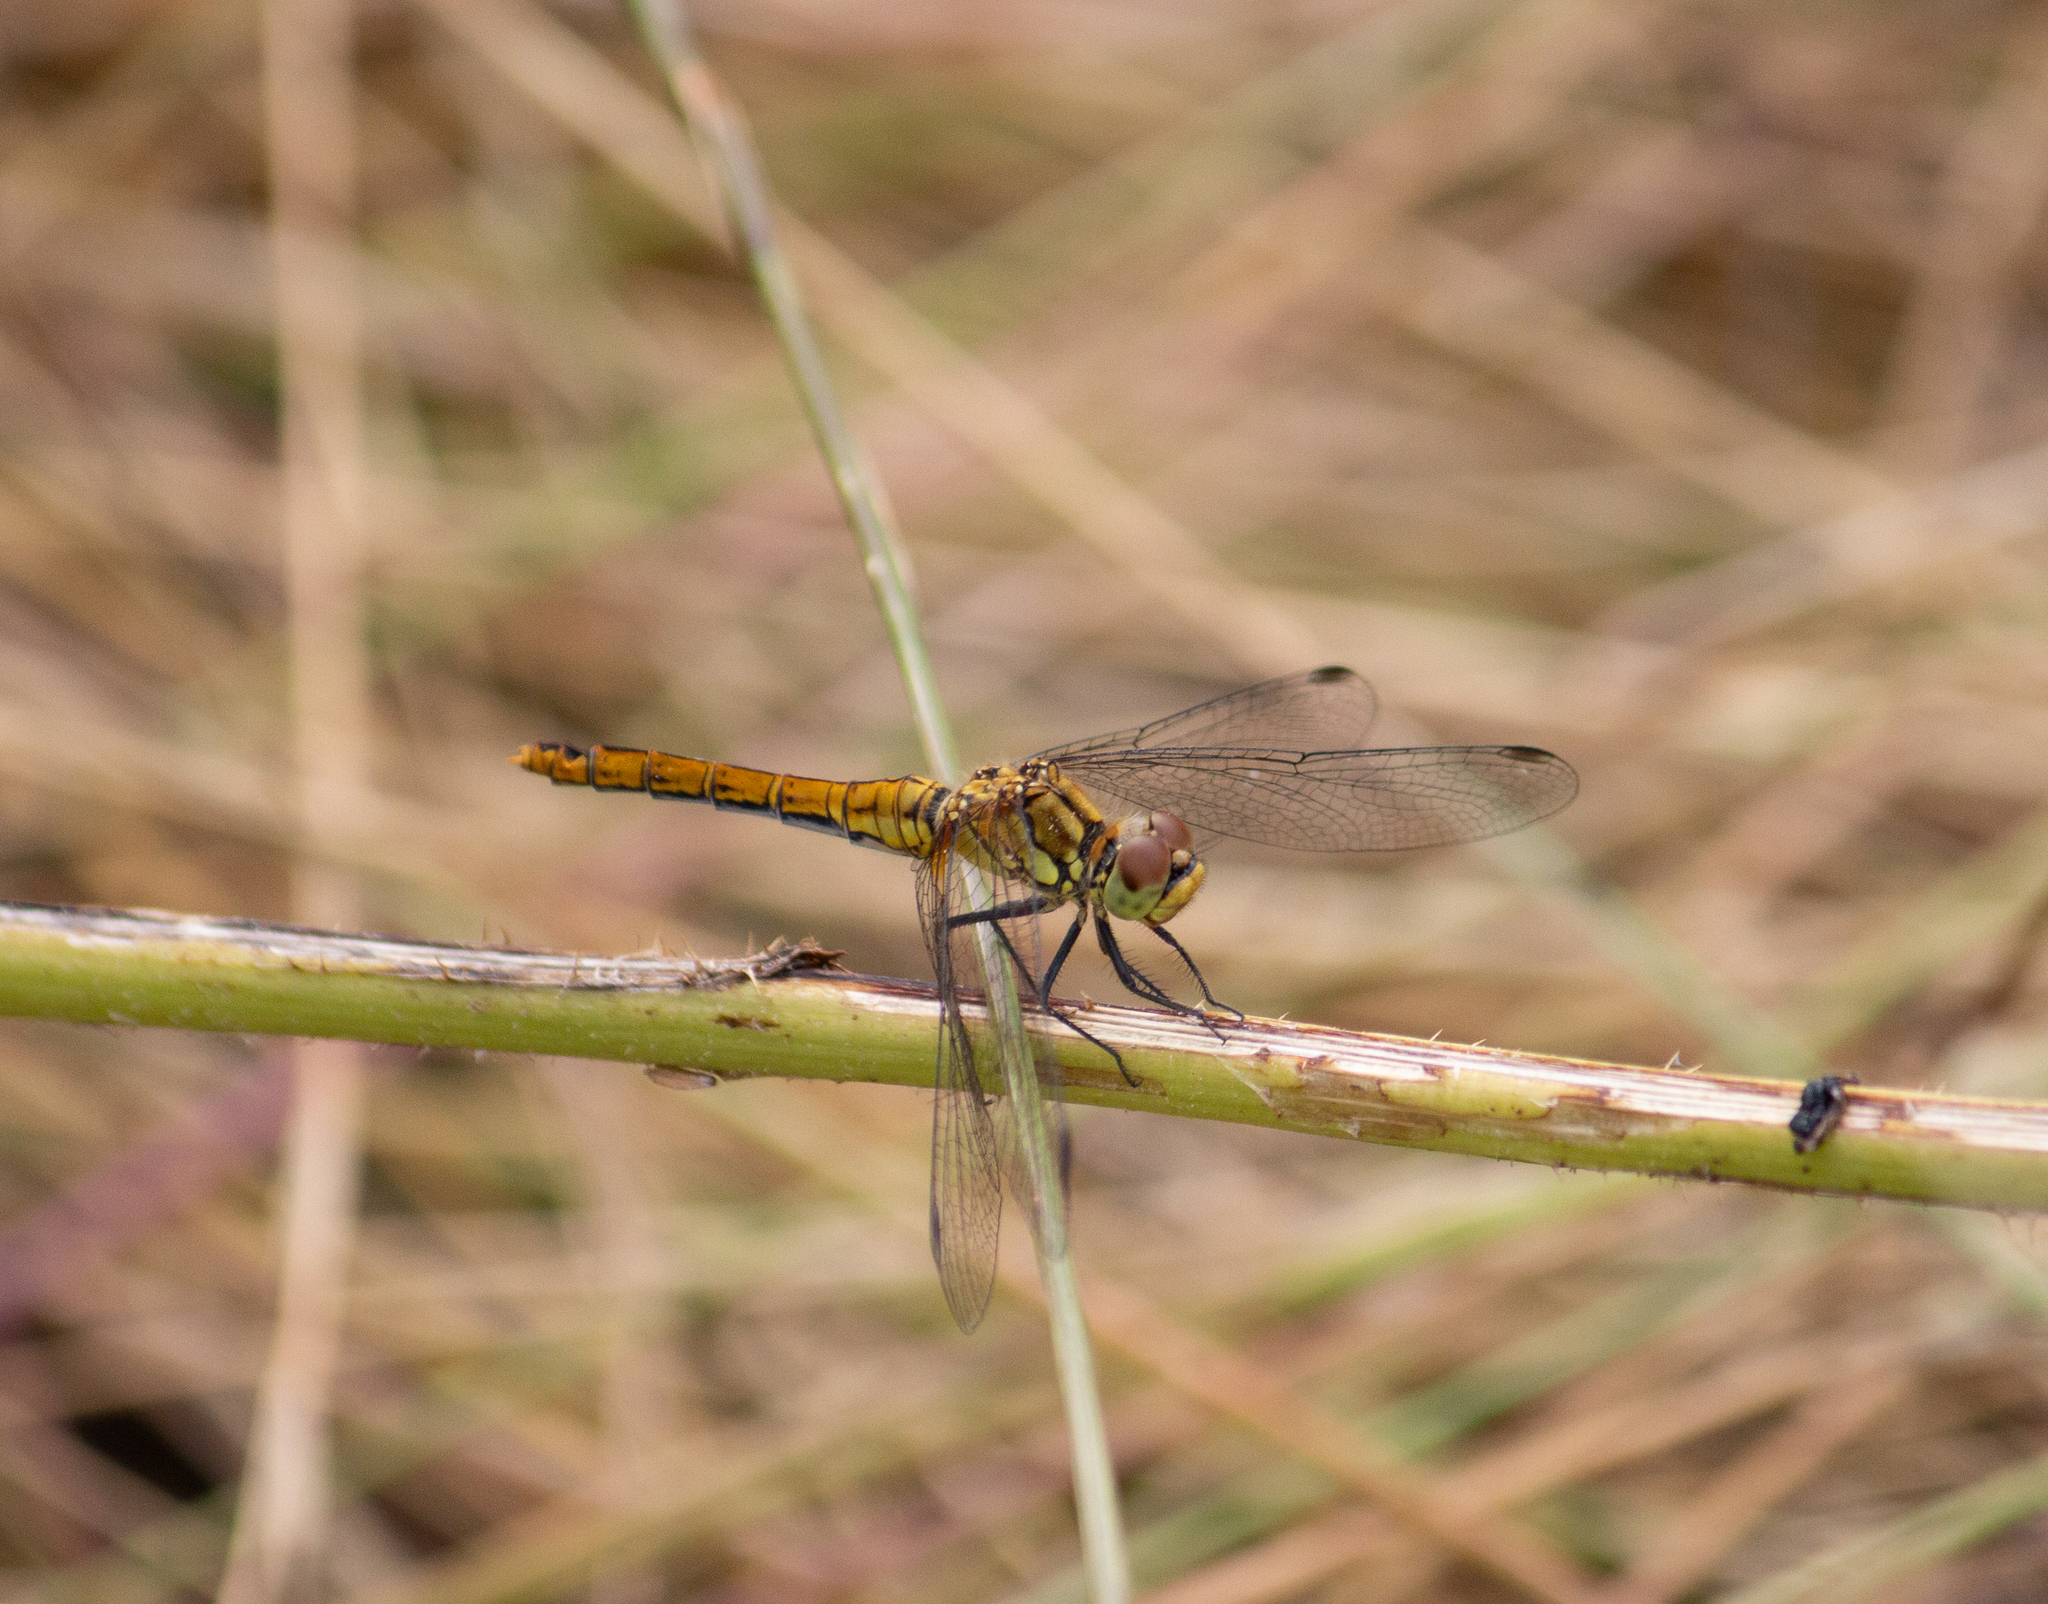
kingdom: Animalia
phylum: Arthropoda
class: Insecta
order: Odonata
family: Libellulidae
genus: Sympetrum
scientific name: Sympetrum sanguineum
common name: Ruddy darter
